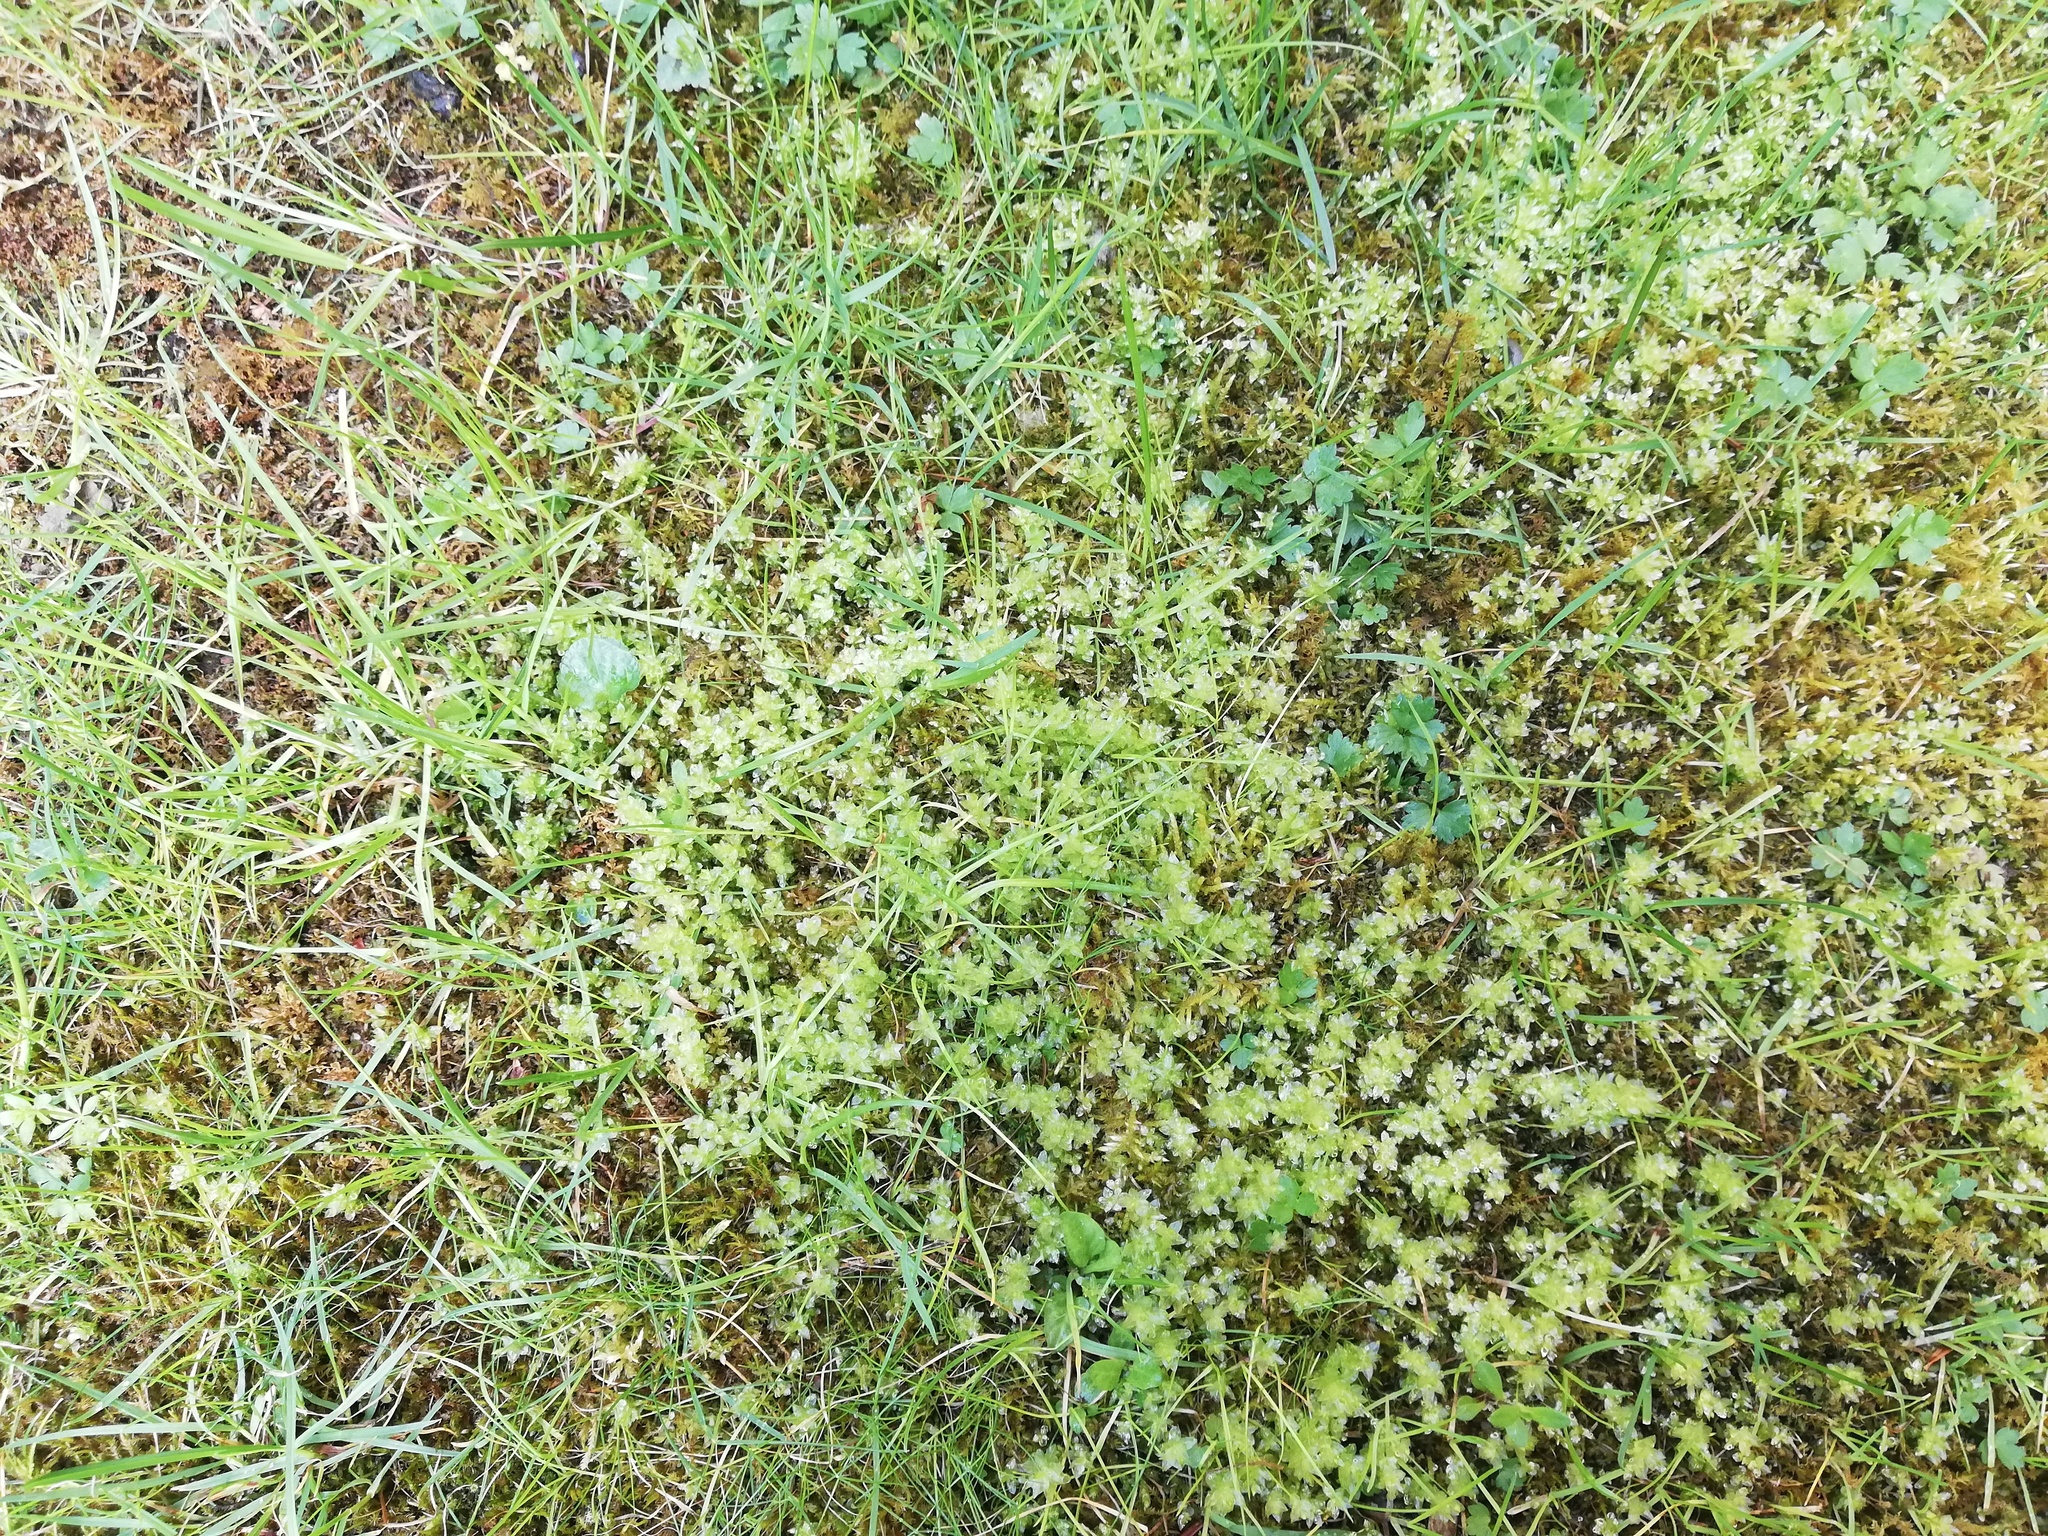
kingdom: Plantae
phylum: Bryophyta
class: Bryopsida
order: Bryales
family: Mniaceae
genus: Plagiomnium
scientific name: Plagiomnium undulatum
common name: Hart's-tongue thyme-moss
